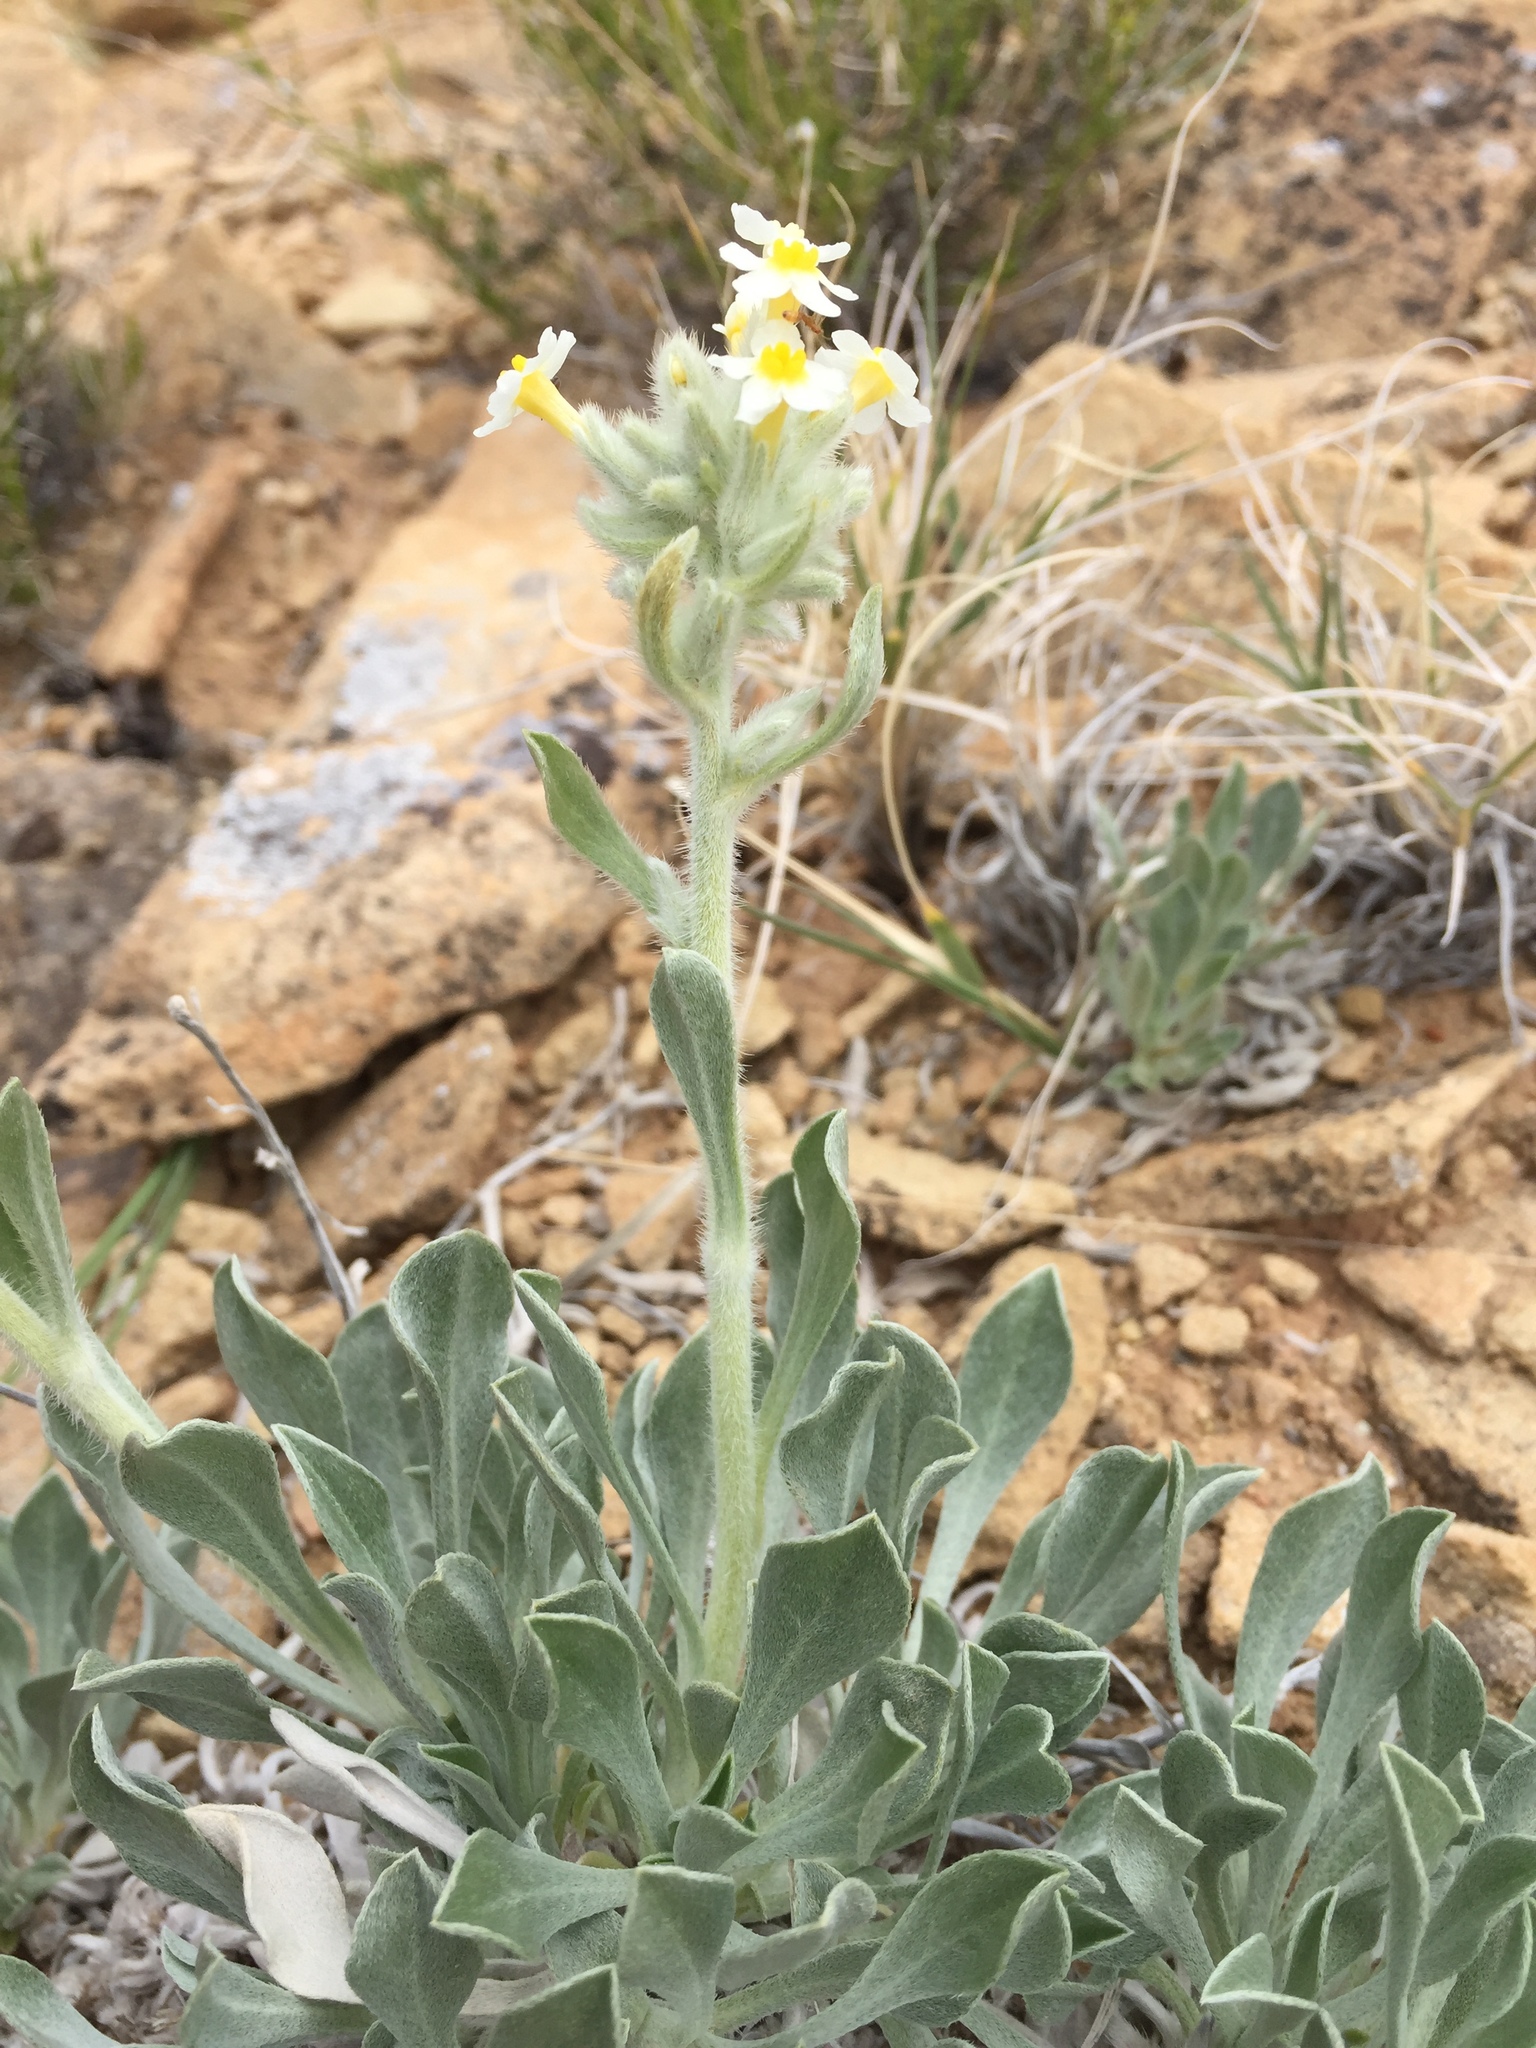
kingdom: Plantae
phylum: Tracheophyta
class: Magnoliopsida
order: Boraginales
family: Boraginaceae
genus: Oreocarya
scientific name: Oreocarya flavoculata
